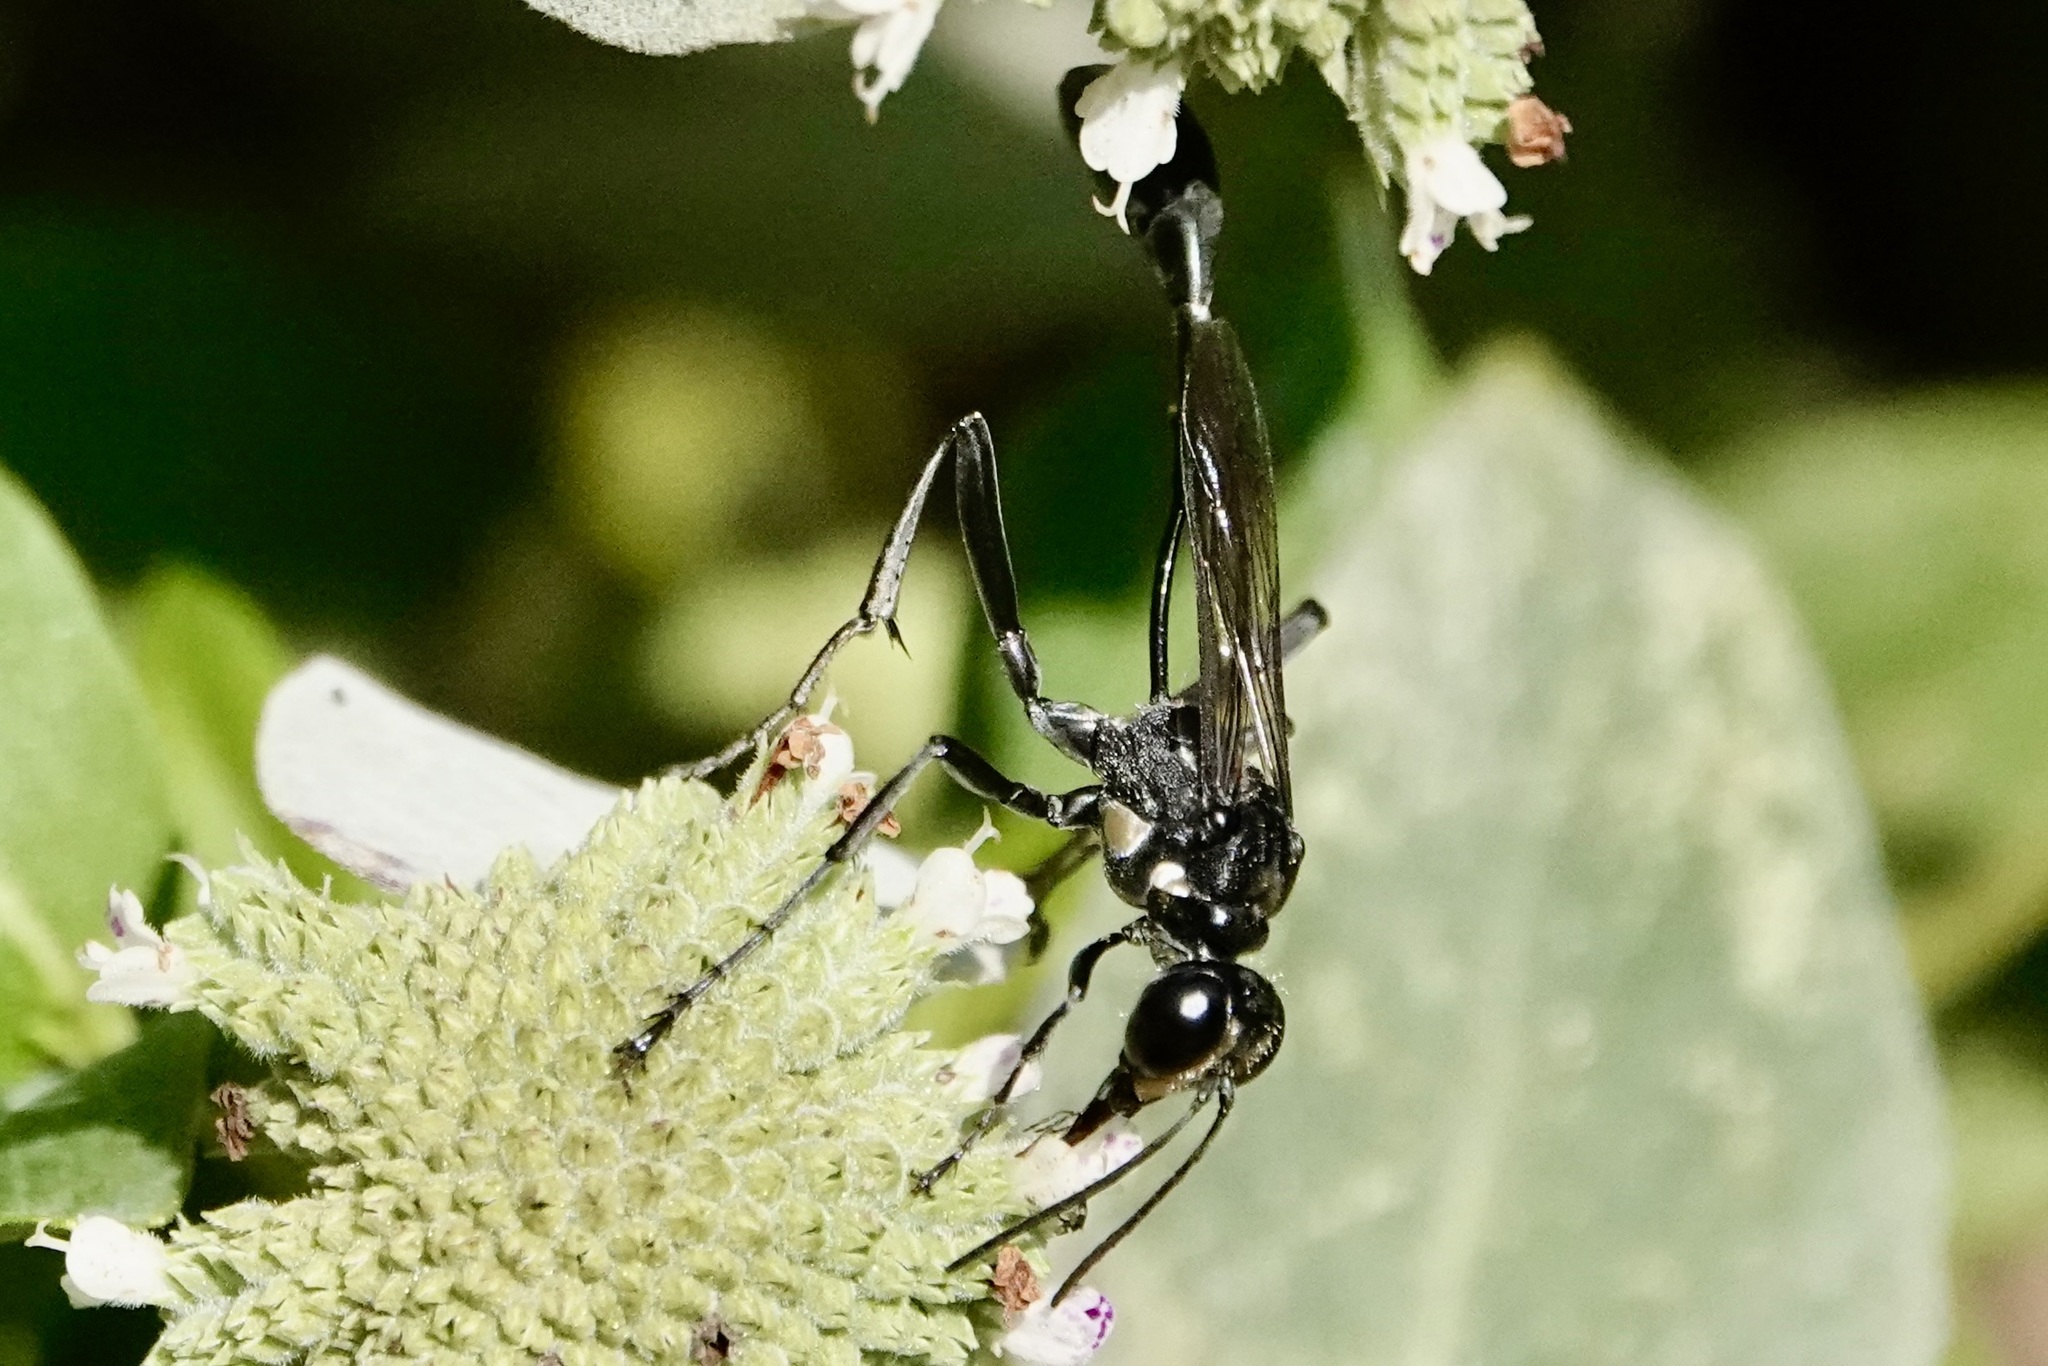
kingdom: Animalia
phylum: Arthropoda
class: Insecta
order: Hymenoptera
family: Sphecidae
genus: Eremnophila
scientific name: Eremnophila aureonotata
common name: Gold-marked thread-waisted wasp
